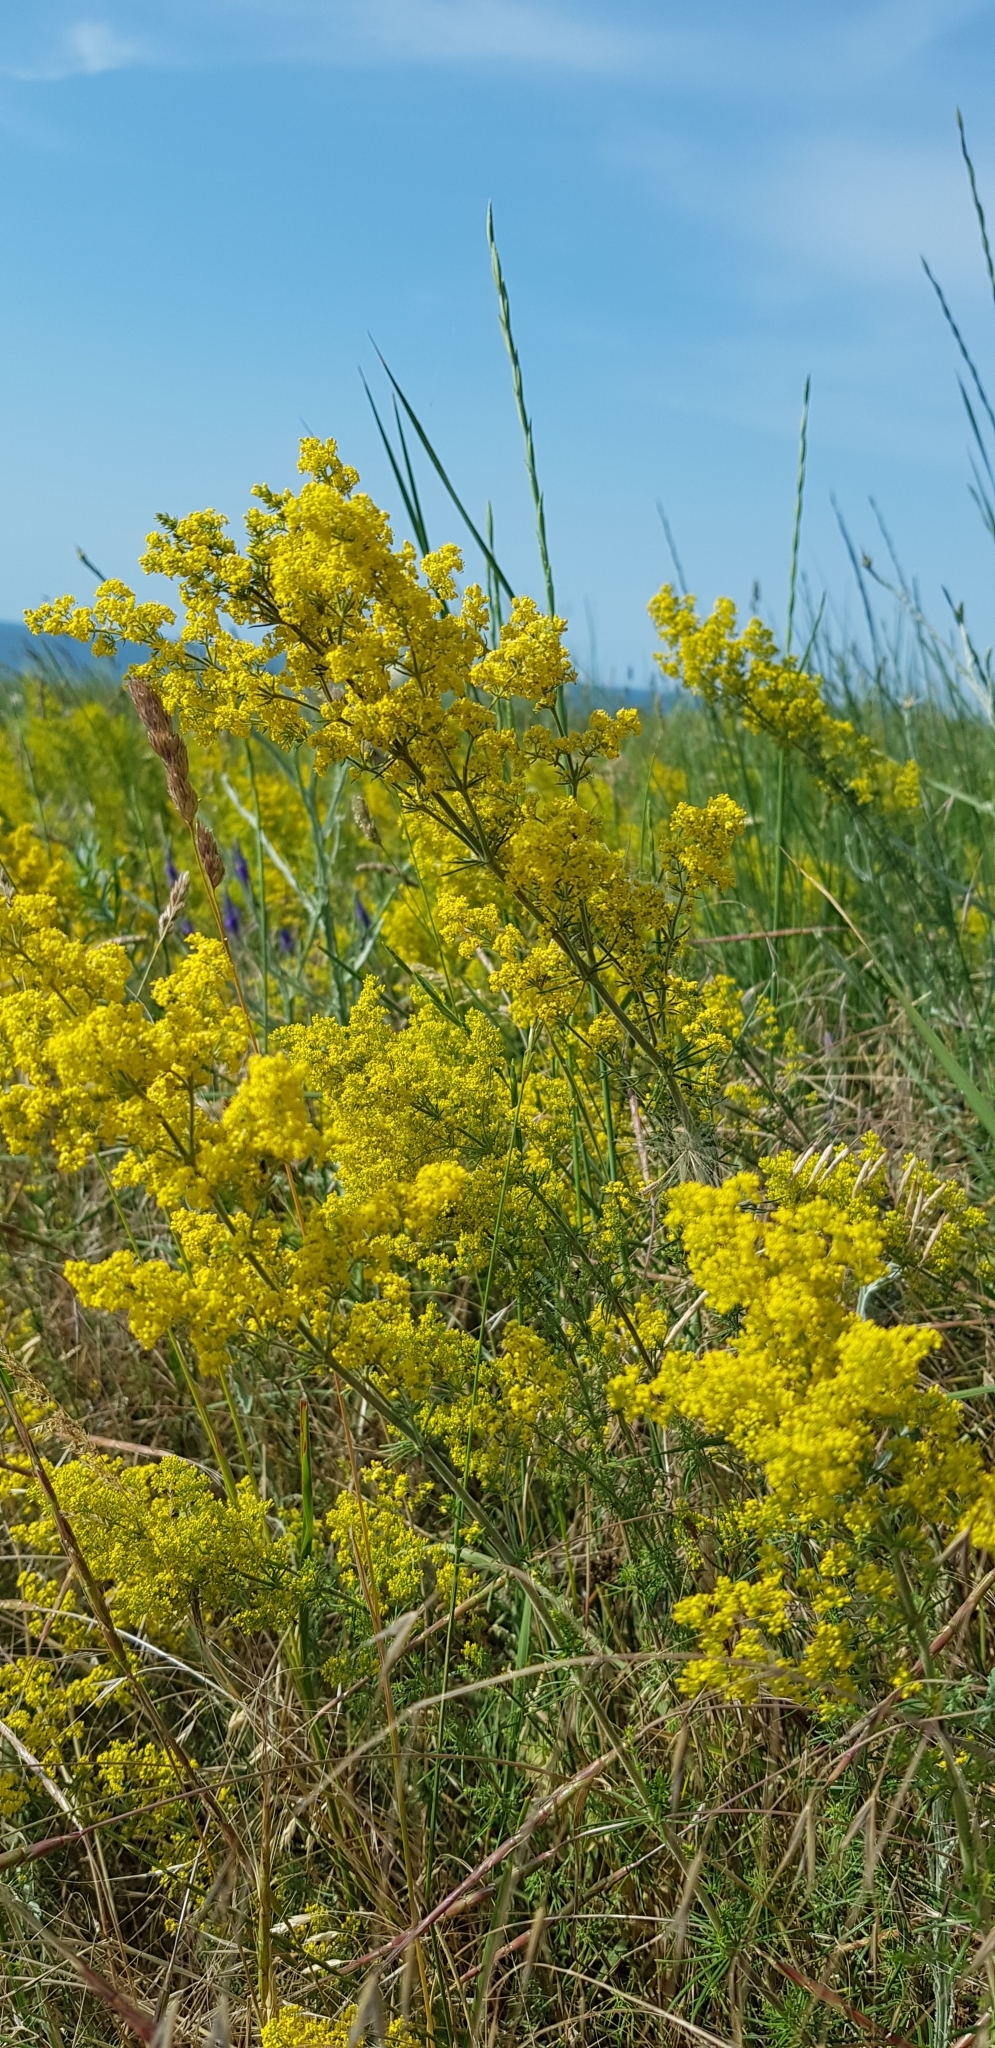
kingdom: Plantae
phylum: Tracheophyta
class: Magnoliopsida
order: Gentianales
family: Rubiaceae
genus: Galium
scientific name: Galium verum
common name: Lady's bedstraw
